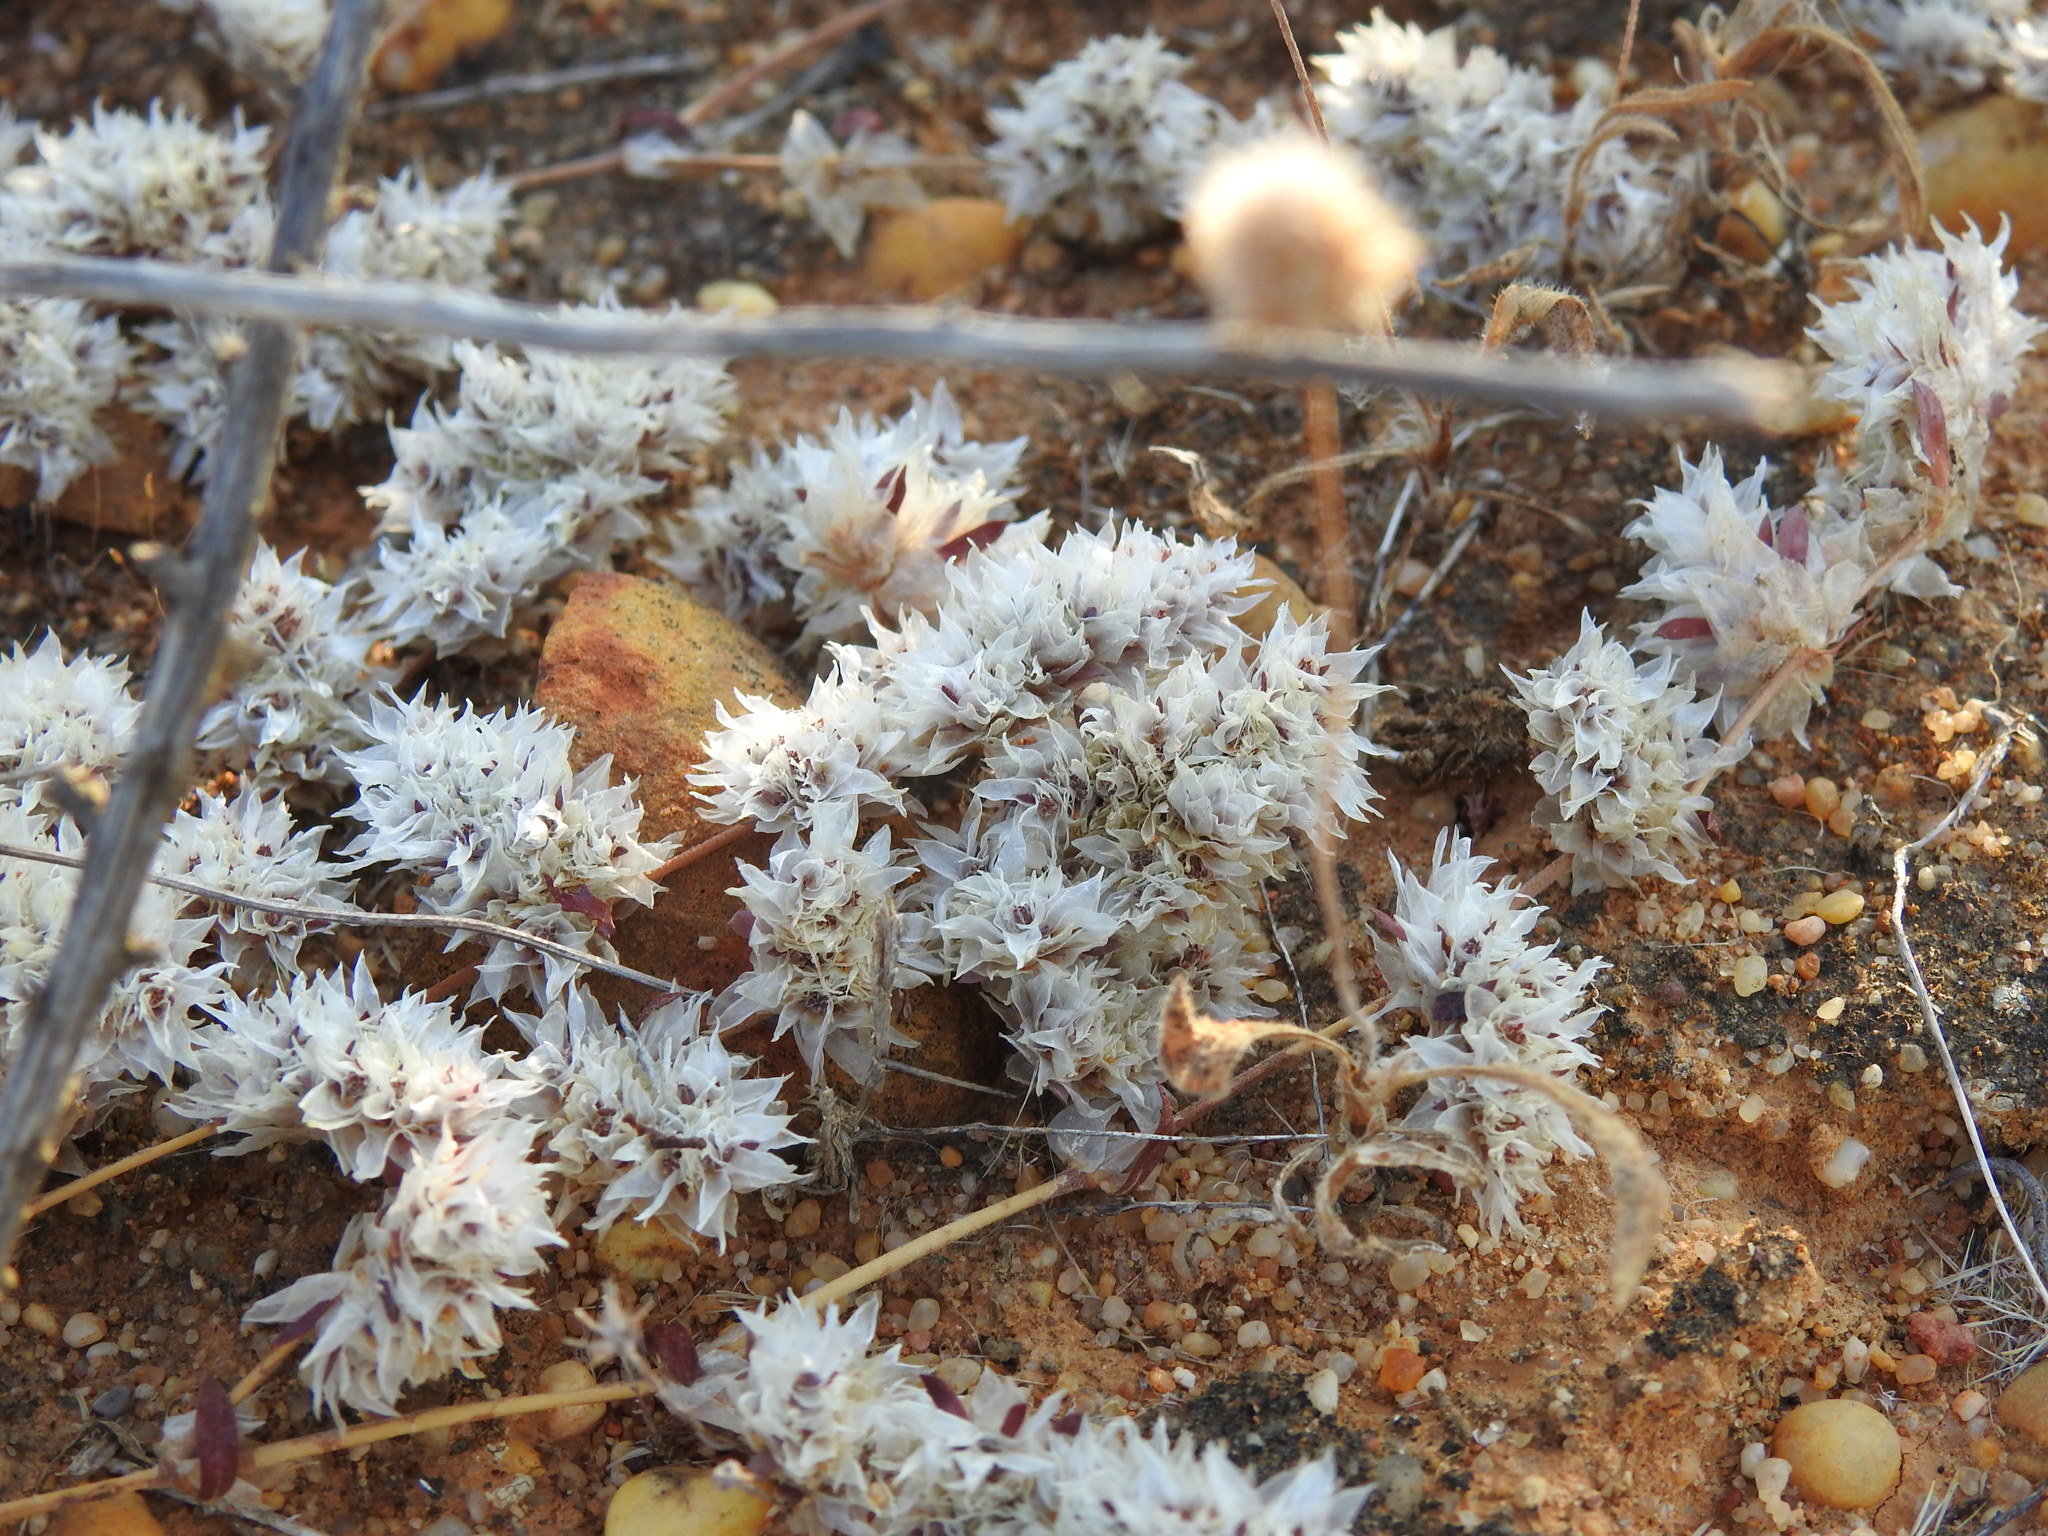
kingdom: Plantae
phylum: Tracheophyta
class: Magnoliopsida
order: Caryophyllales
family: Caryophyllaceae
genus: Paronychia
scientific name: Paronychia argentea
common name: Silver nailroot
